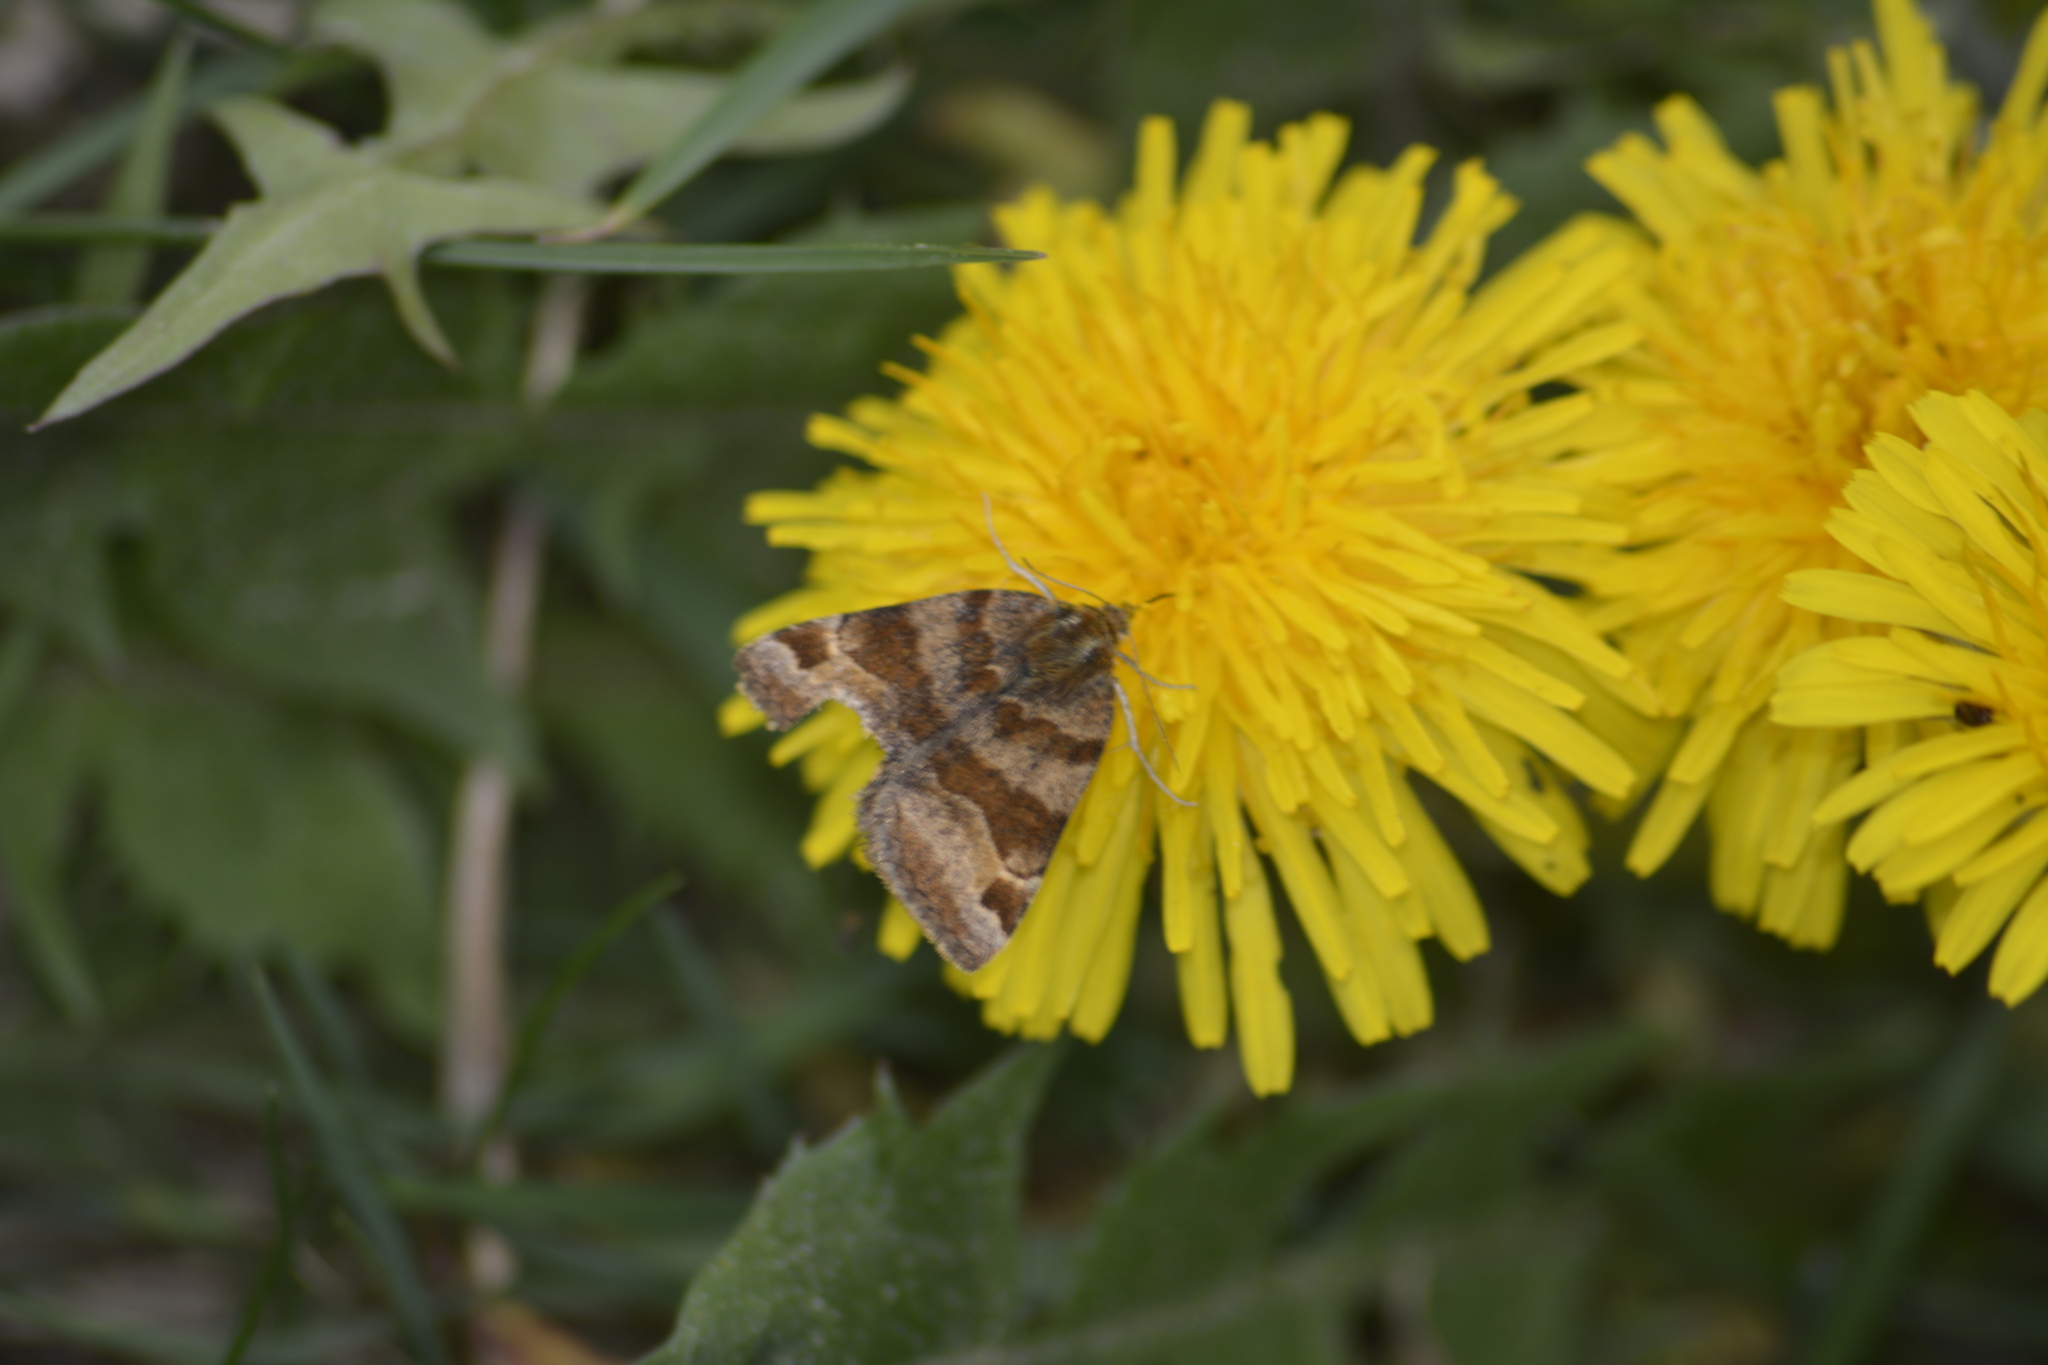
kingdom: Animalia
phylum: Arthropoda
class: Insecta
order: Lepidoptera
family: Erebidae
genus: Euclidia
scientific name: Euclidia glyphica
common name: Burnet companion
